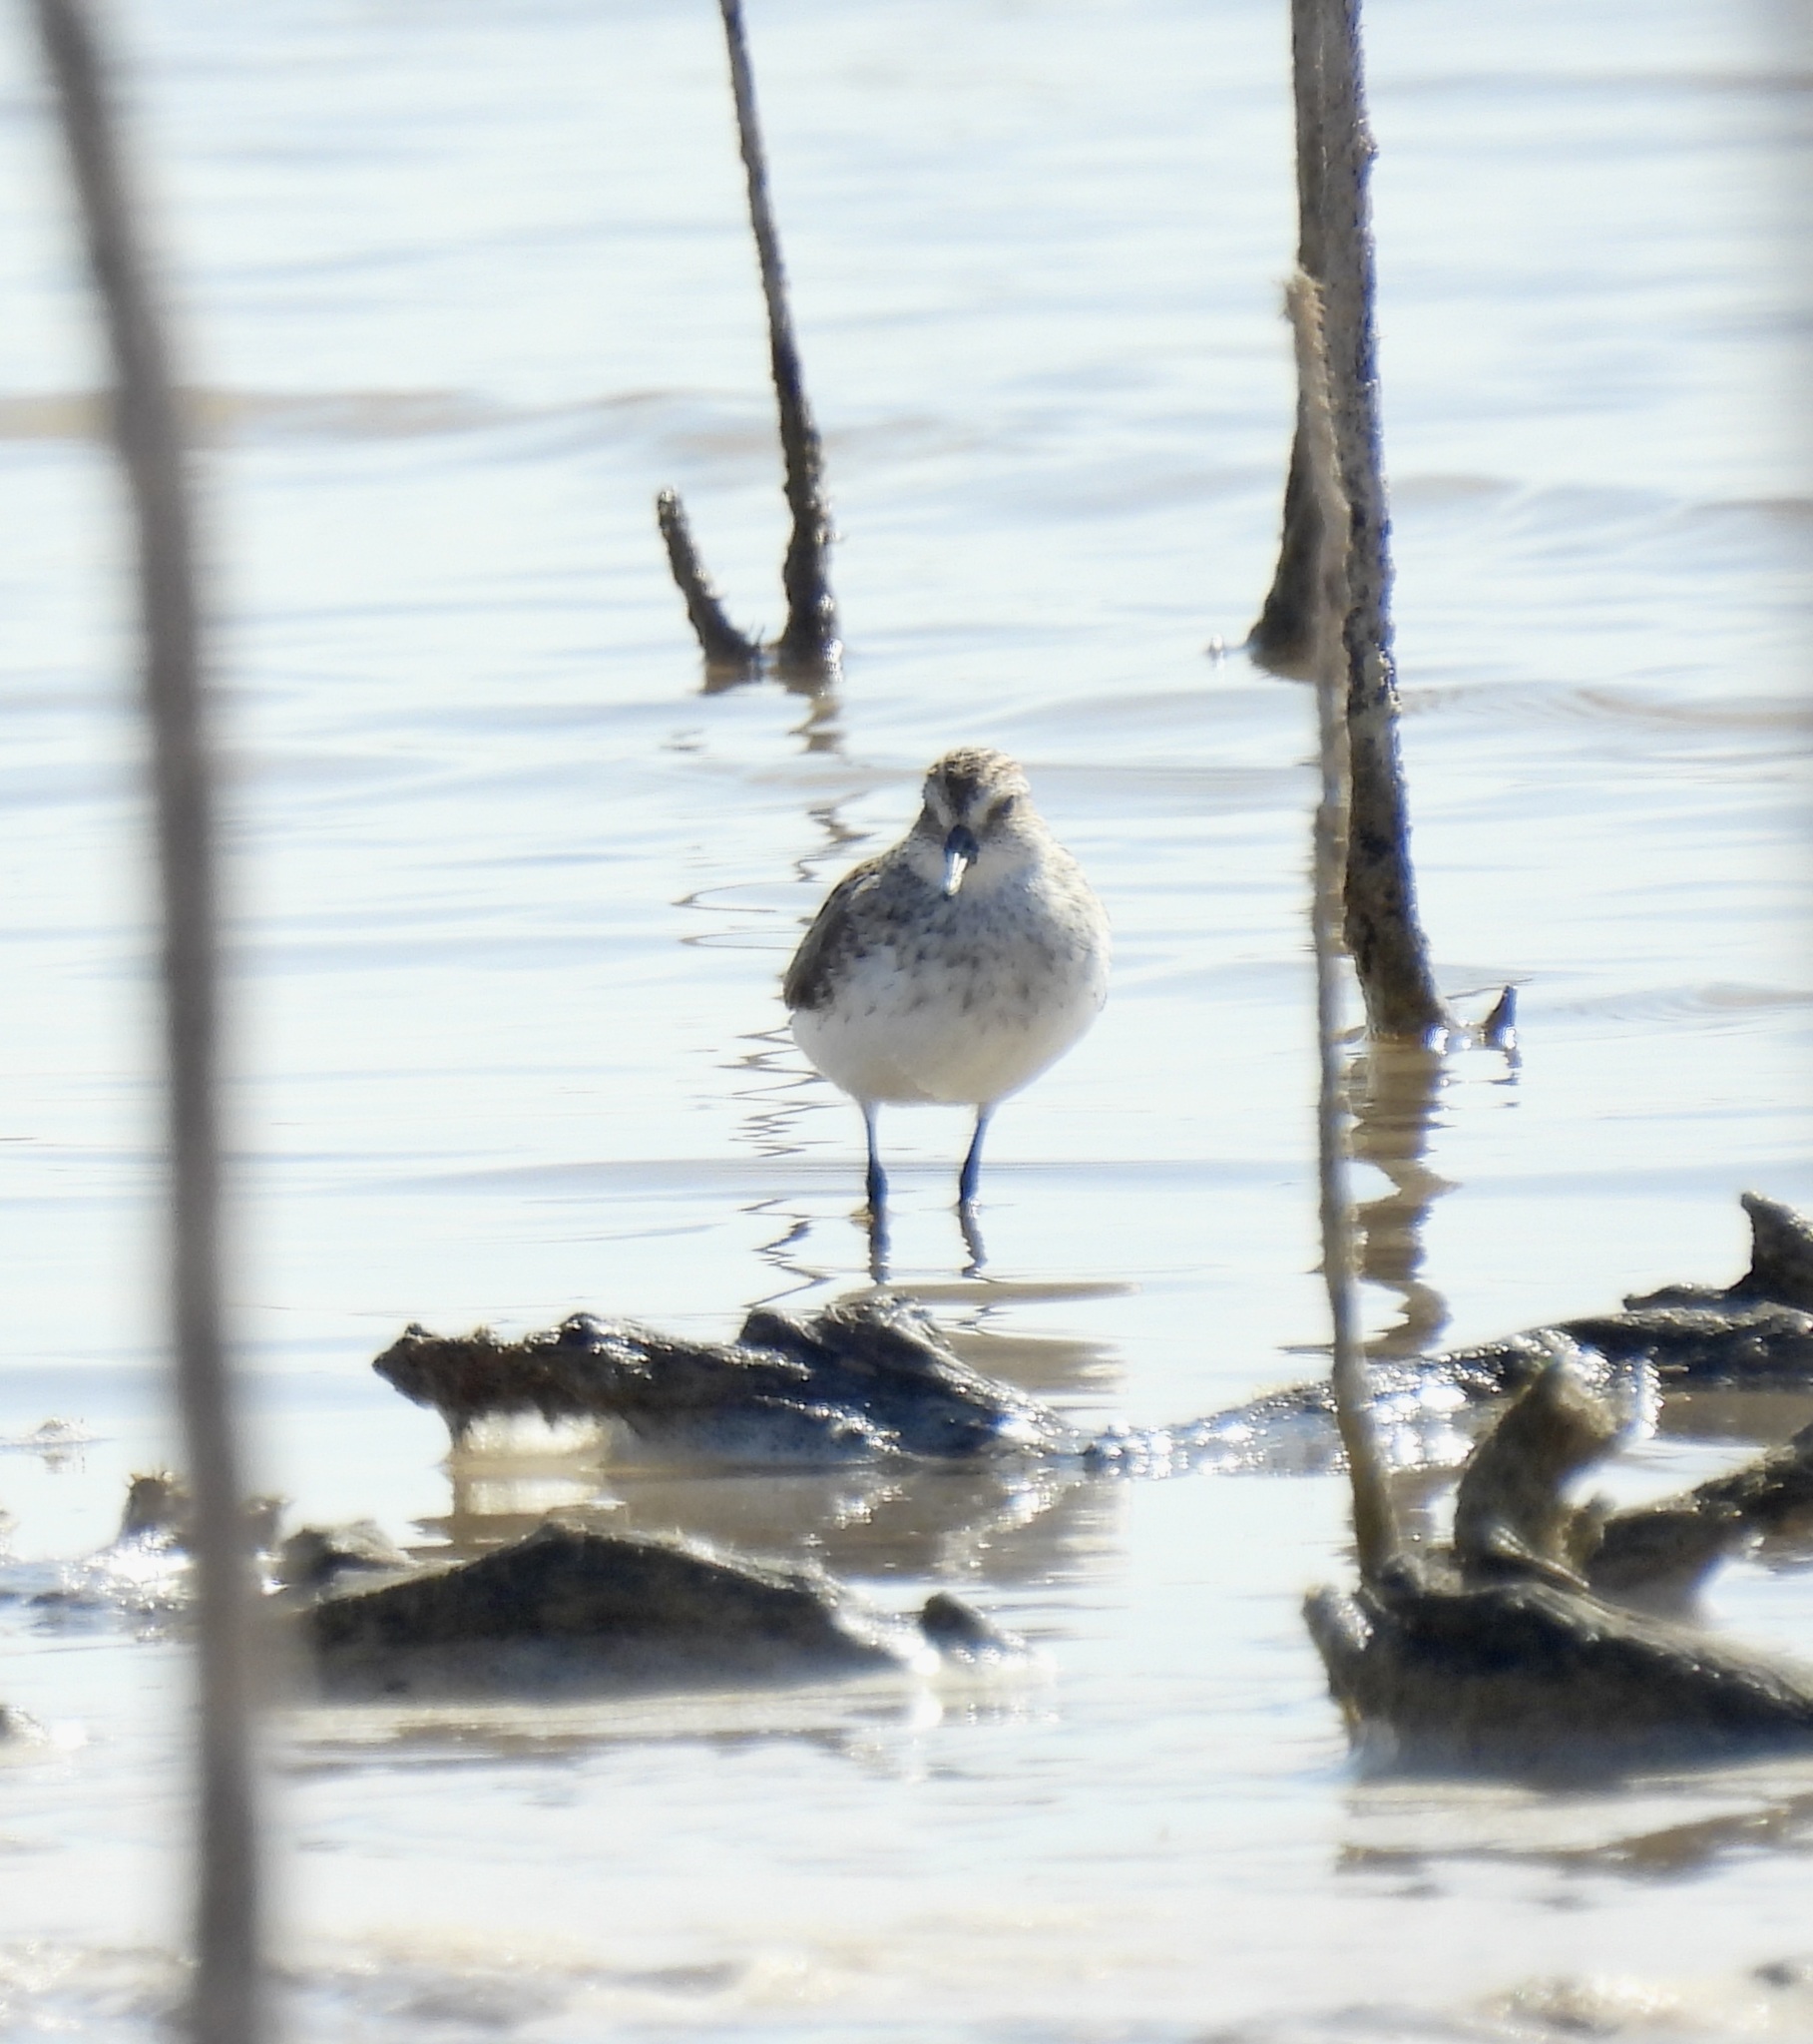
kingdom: Animalia
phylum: Chordata
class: Aves
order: Charadriiformes
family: Scolopacidae
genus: Calidris
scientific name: Calidris pusilla
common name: Semipalmated sandpiper
